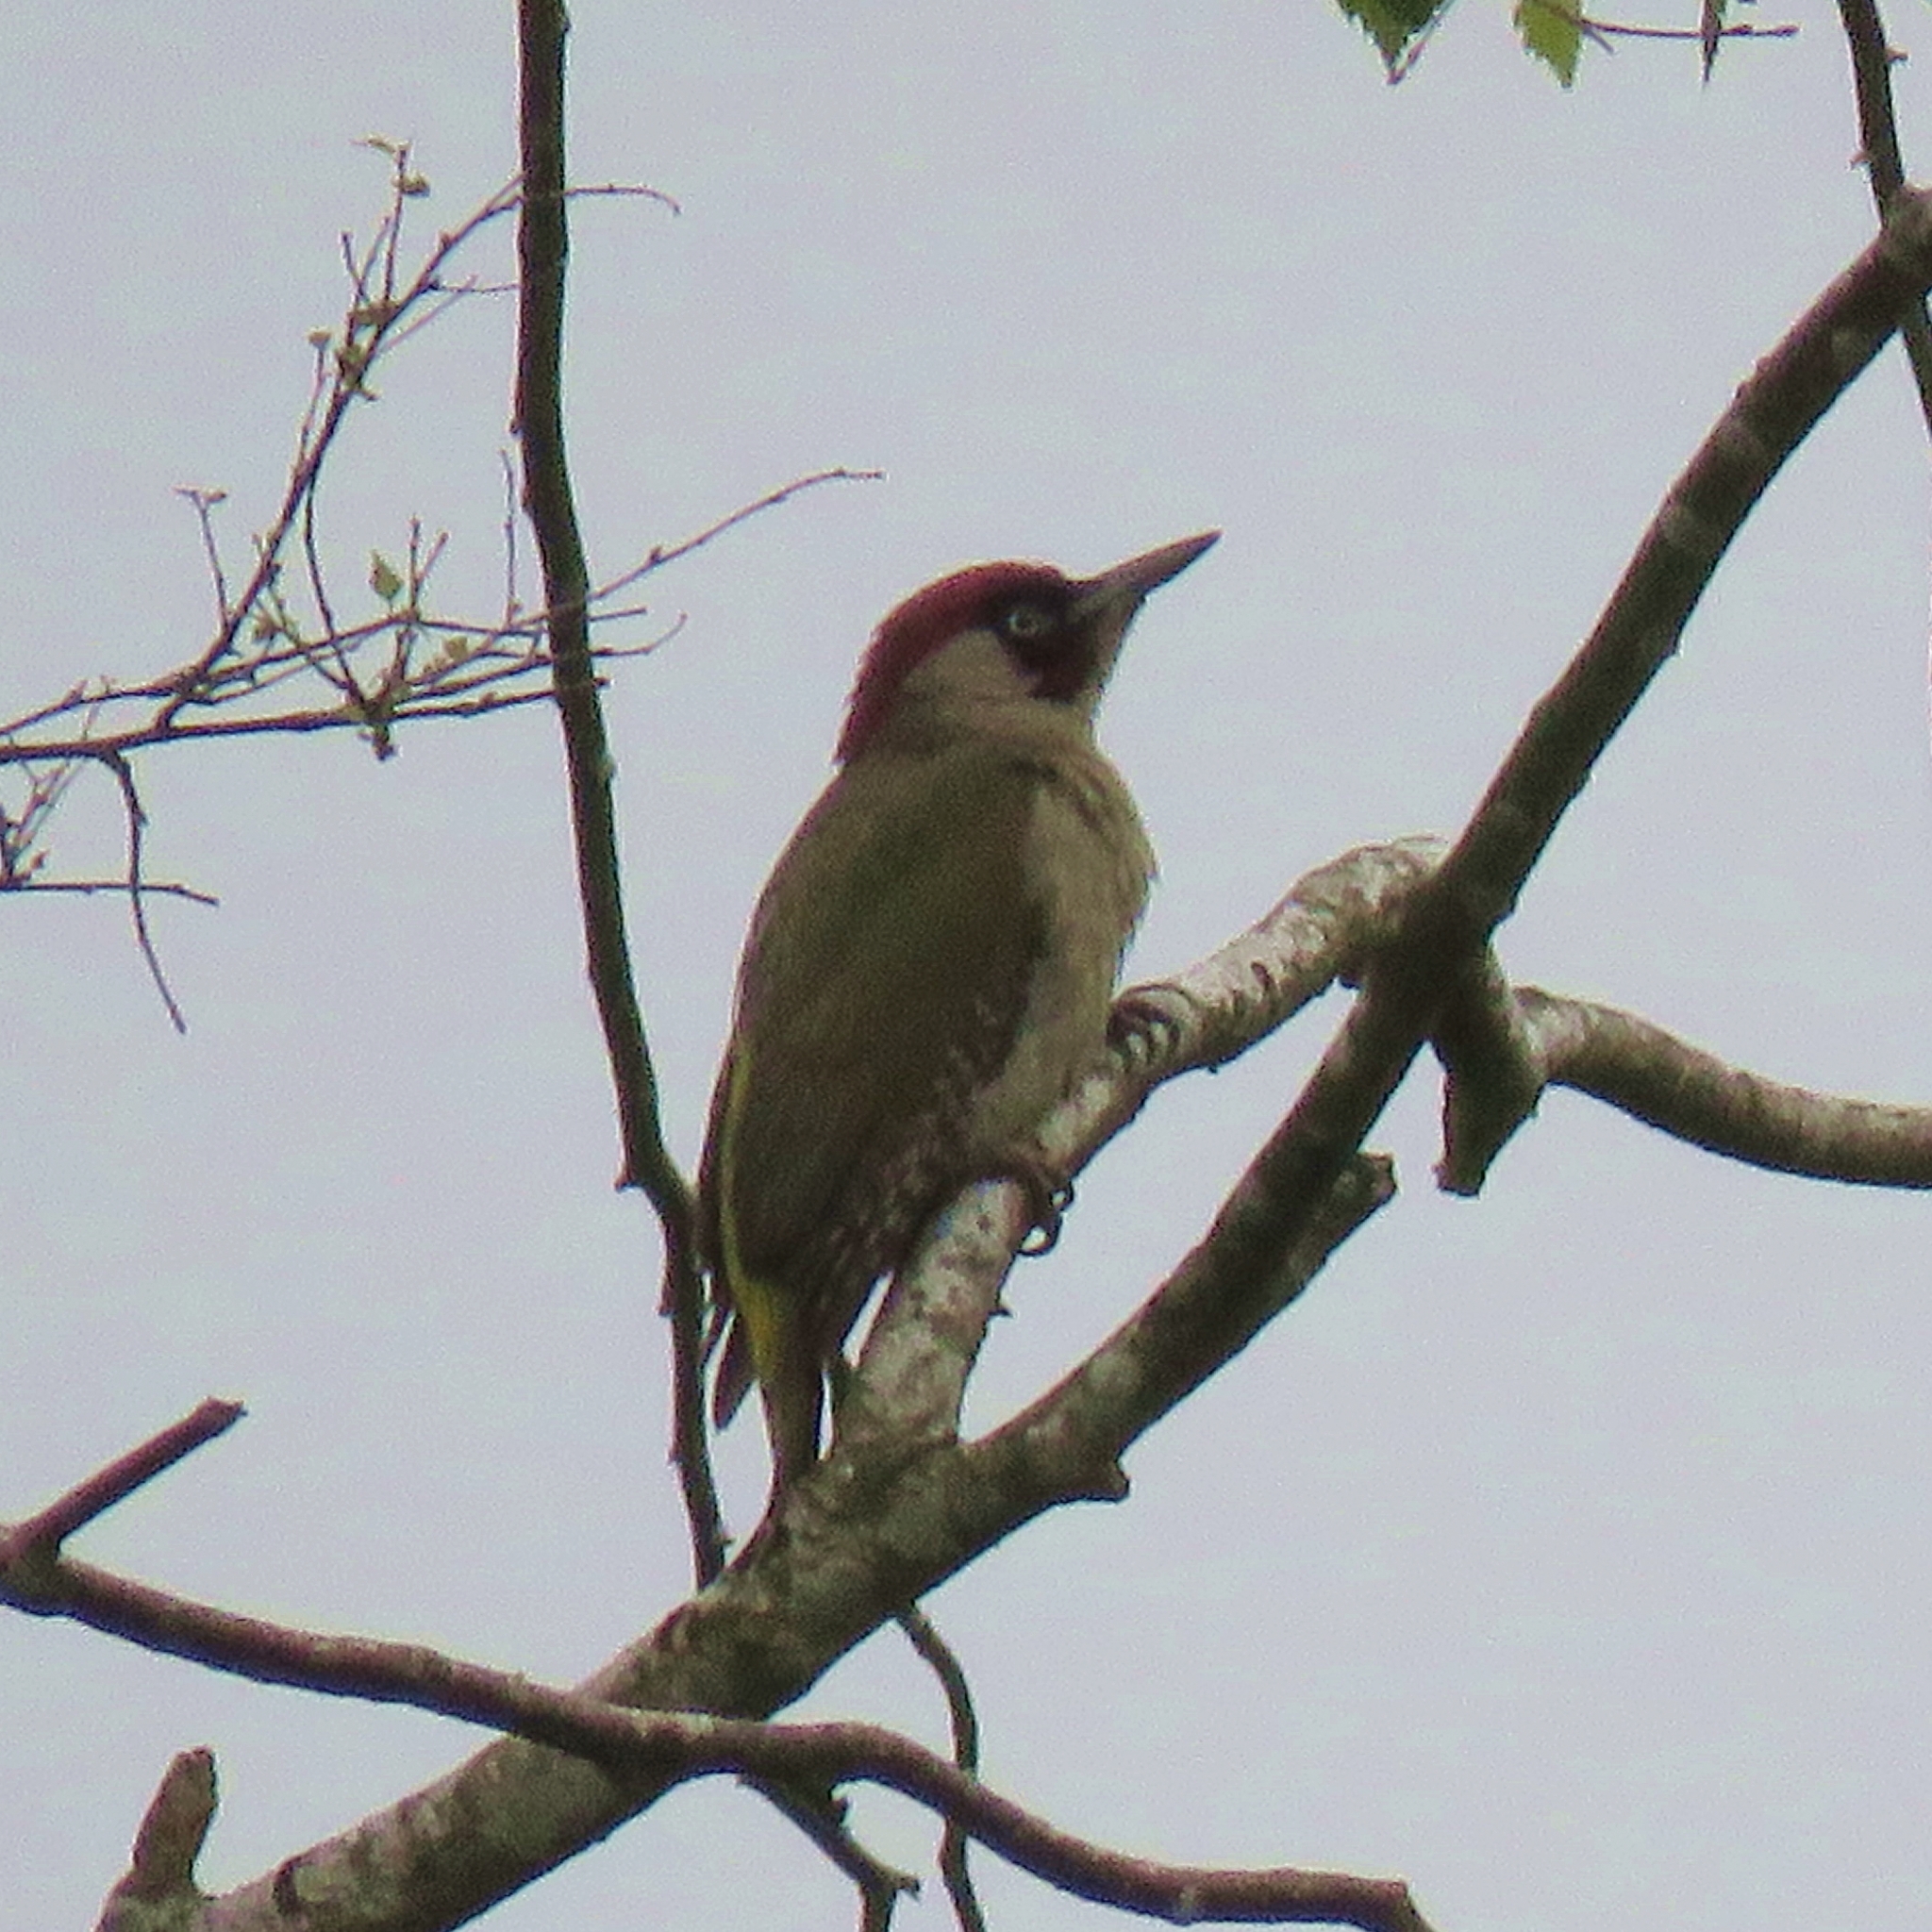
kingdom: Animalia
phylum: Chordata
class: Aves
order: Piciformes
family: Picidae
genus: Picus
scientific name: Picus viridis
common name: European green woodpecker
